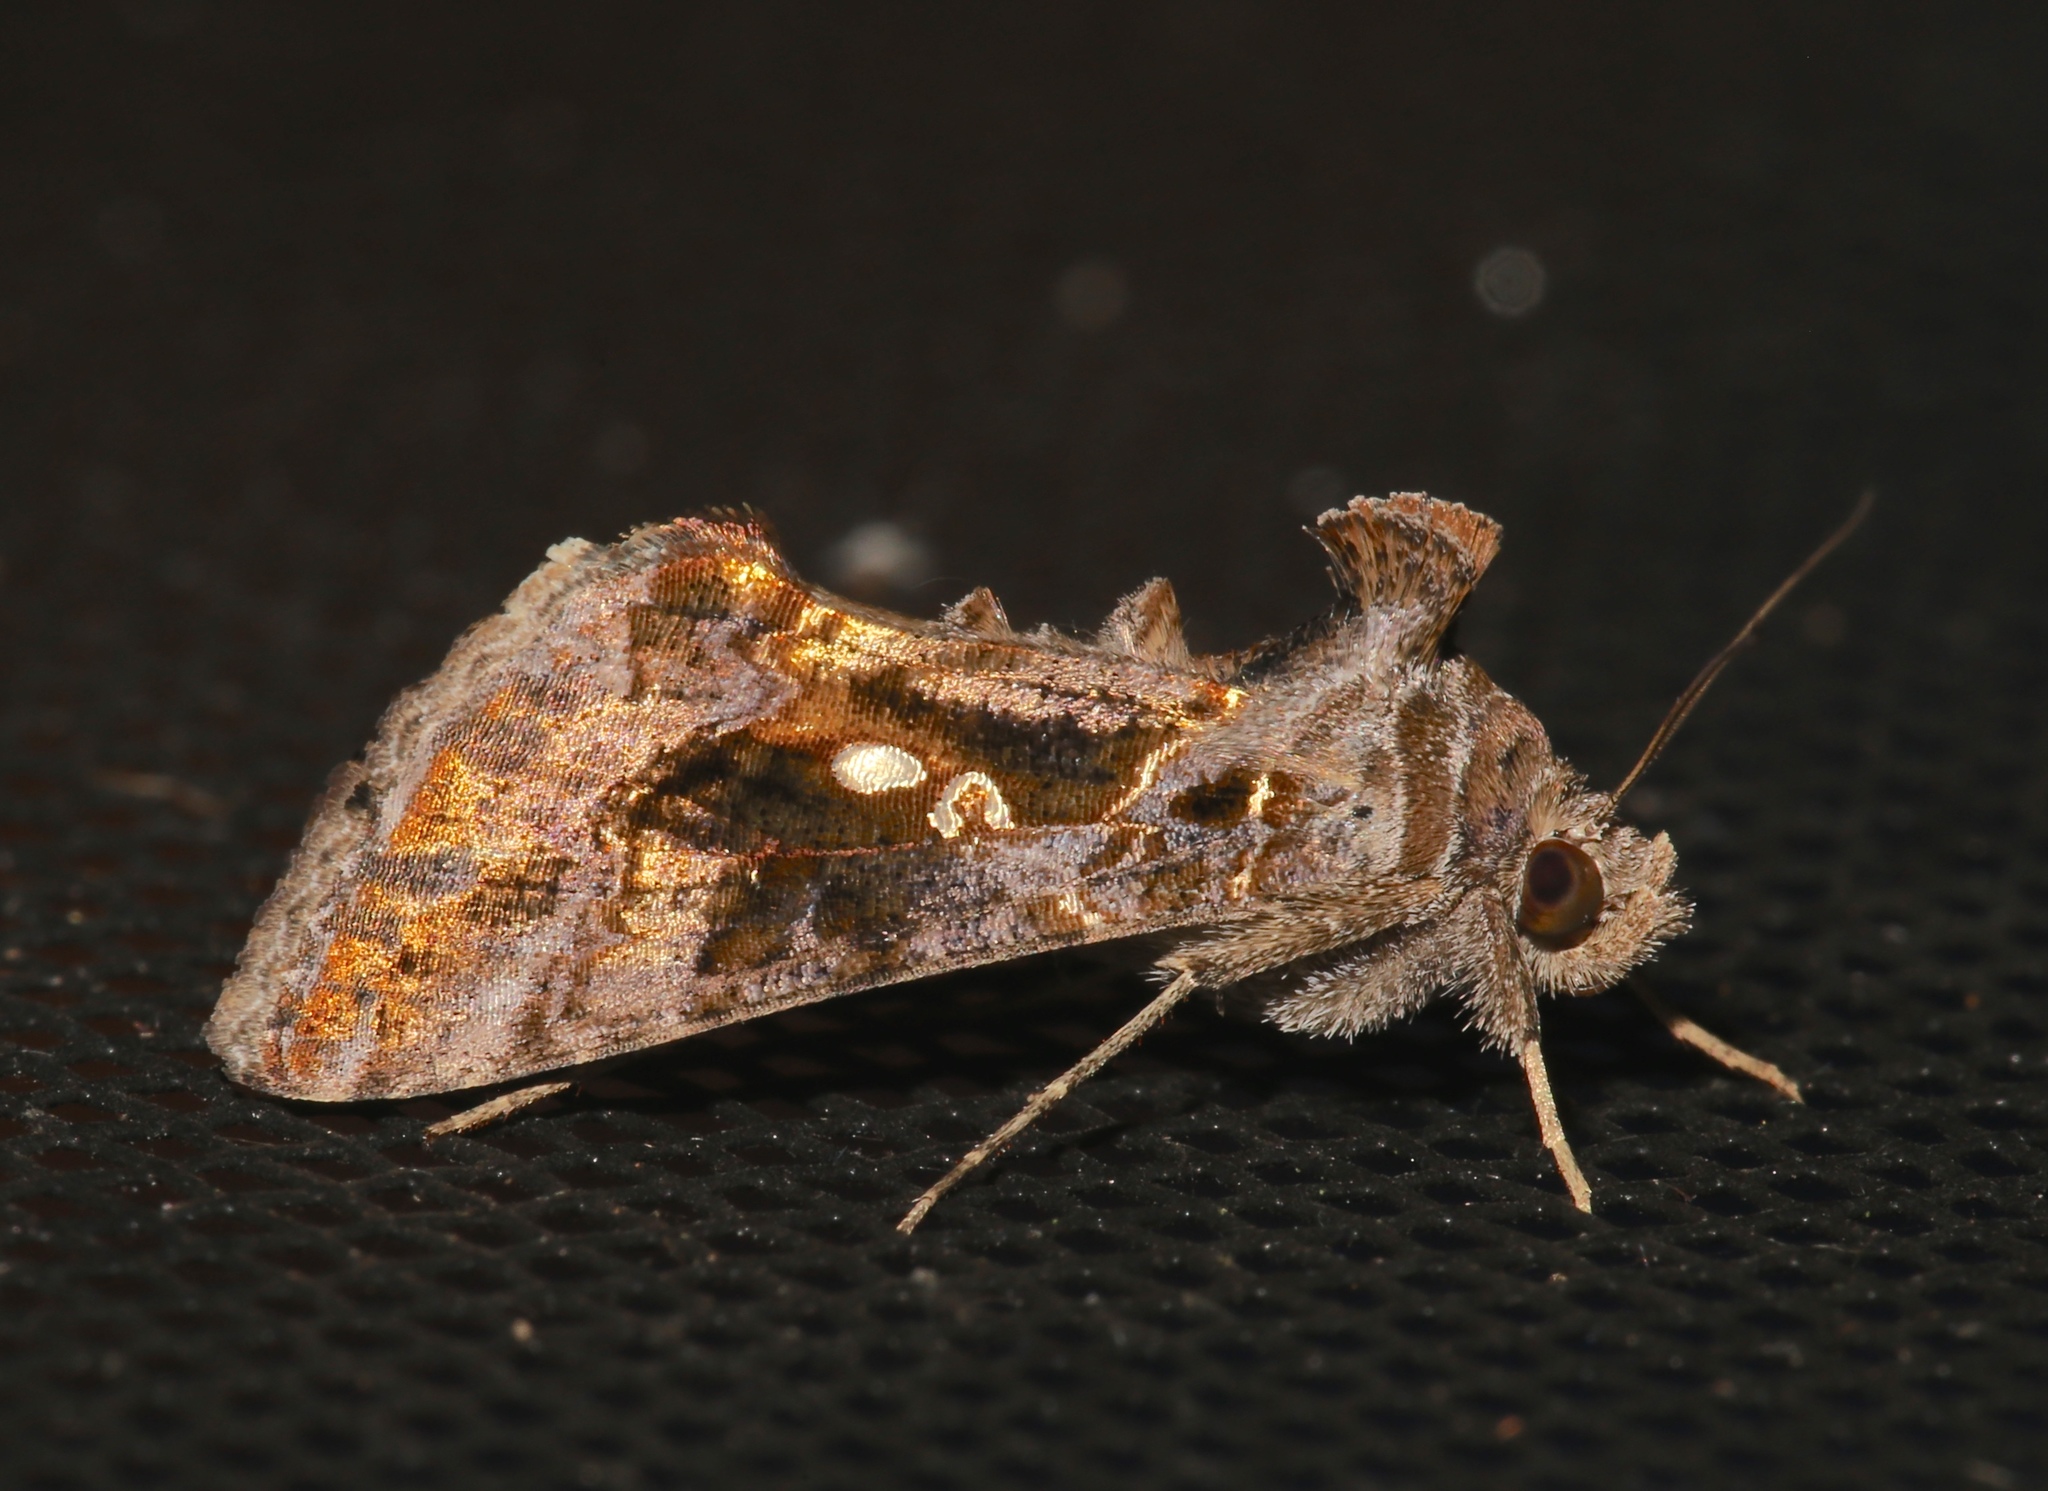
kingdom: Animalia
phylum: Arthropoda
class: Insecta
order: Lepidoptera
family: Noctuidae
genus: Chrysodeixis
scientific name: Chrysodeixis includens
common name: Cutworm moth
